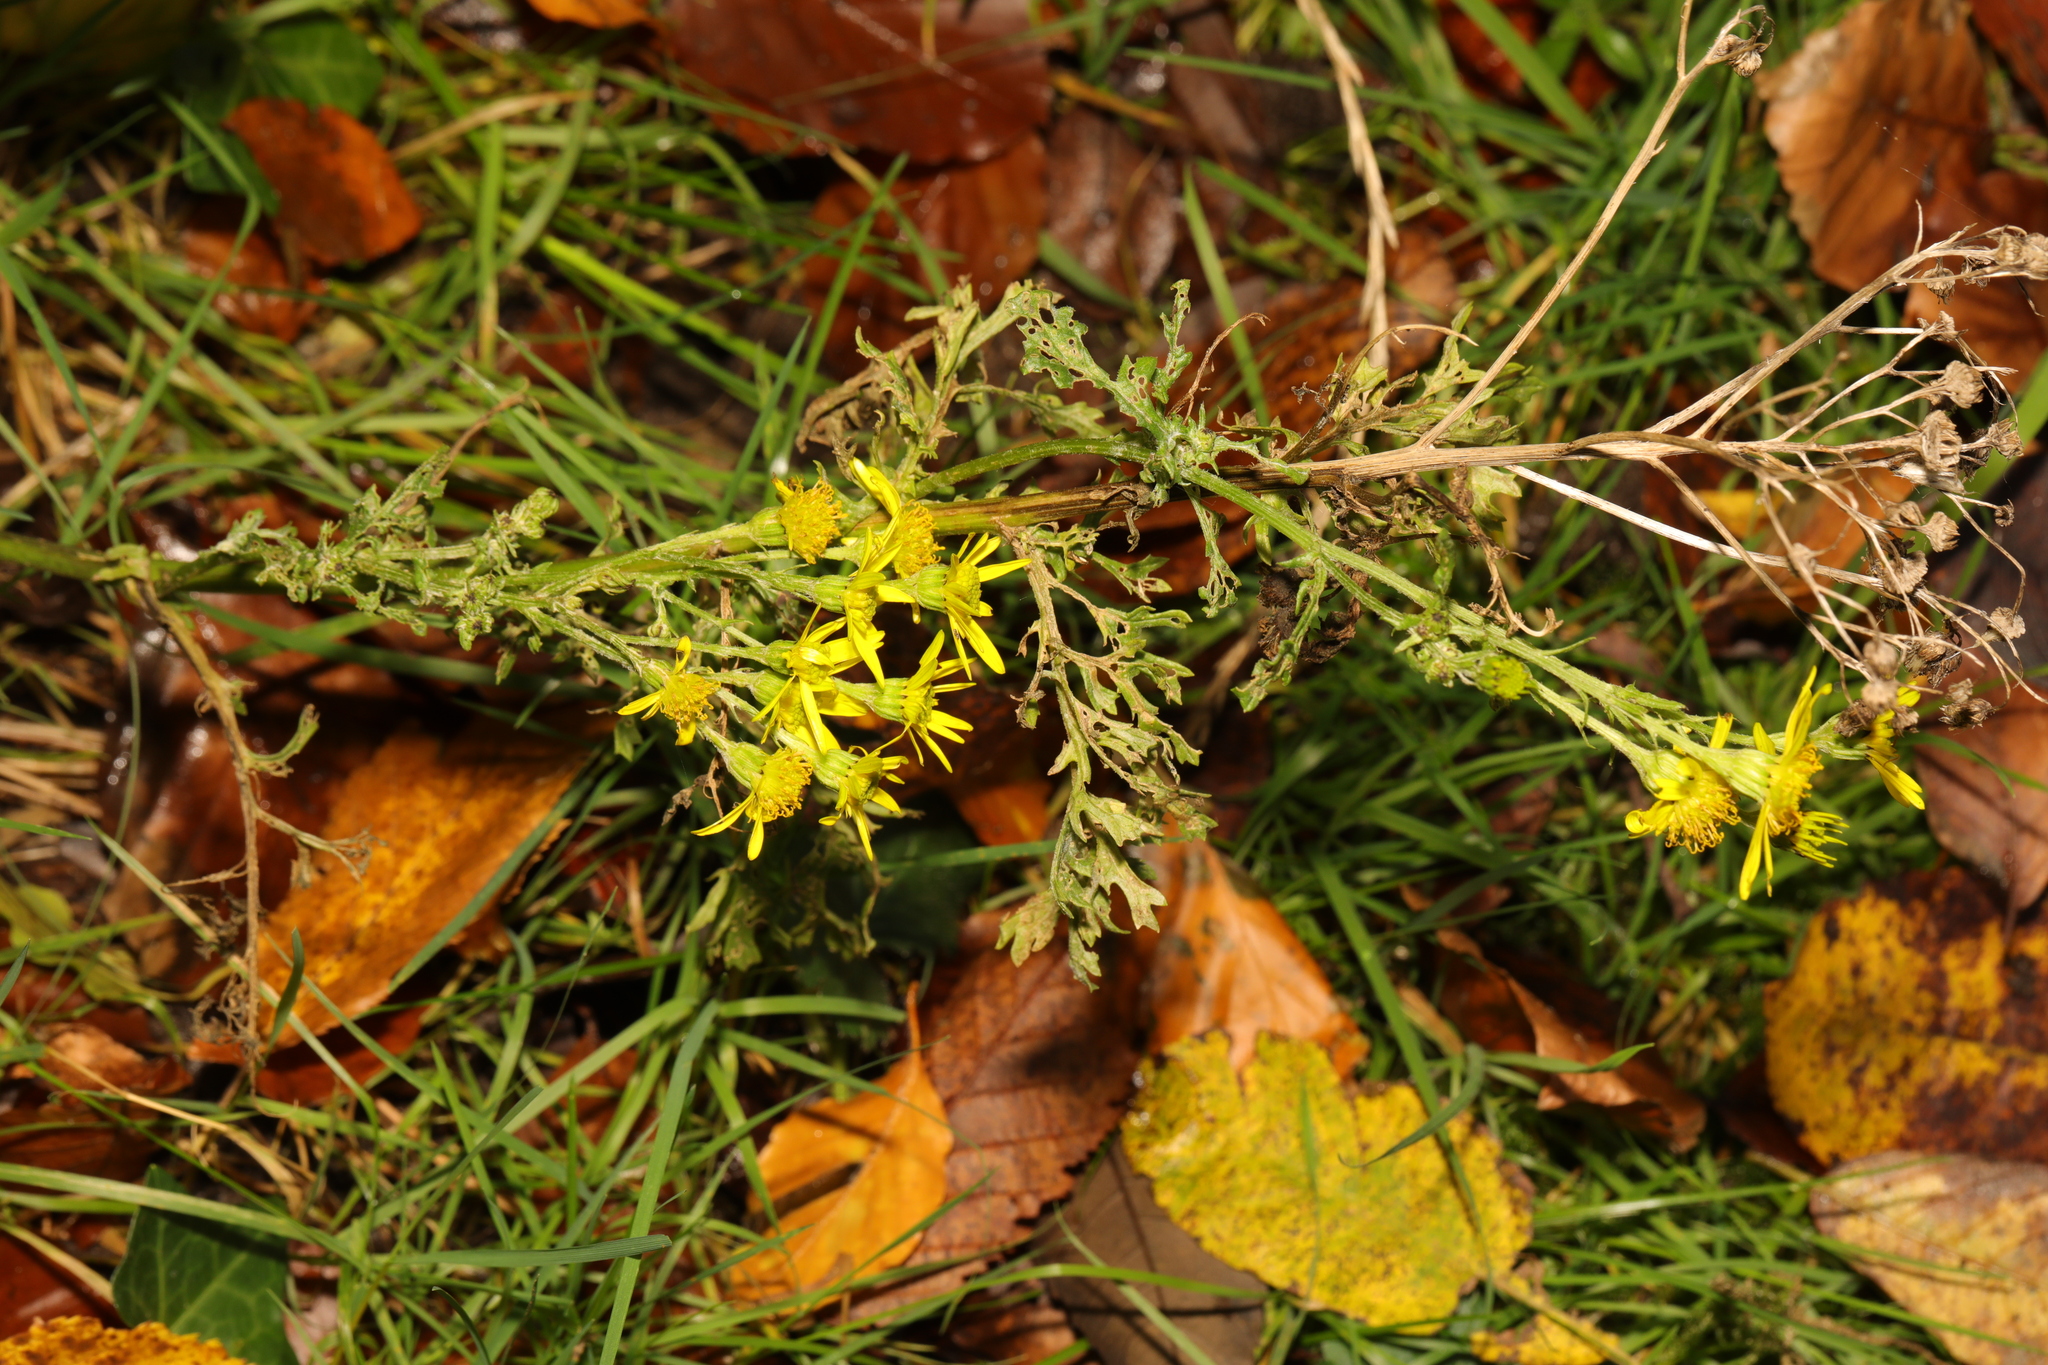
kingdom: Plantae
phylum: Tracheophyta
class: Magnoliopsida
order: Asterales
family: Asteraceae
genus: Jacobaea
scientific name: Jacobaea vulgaris
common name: Stinking willie
